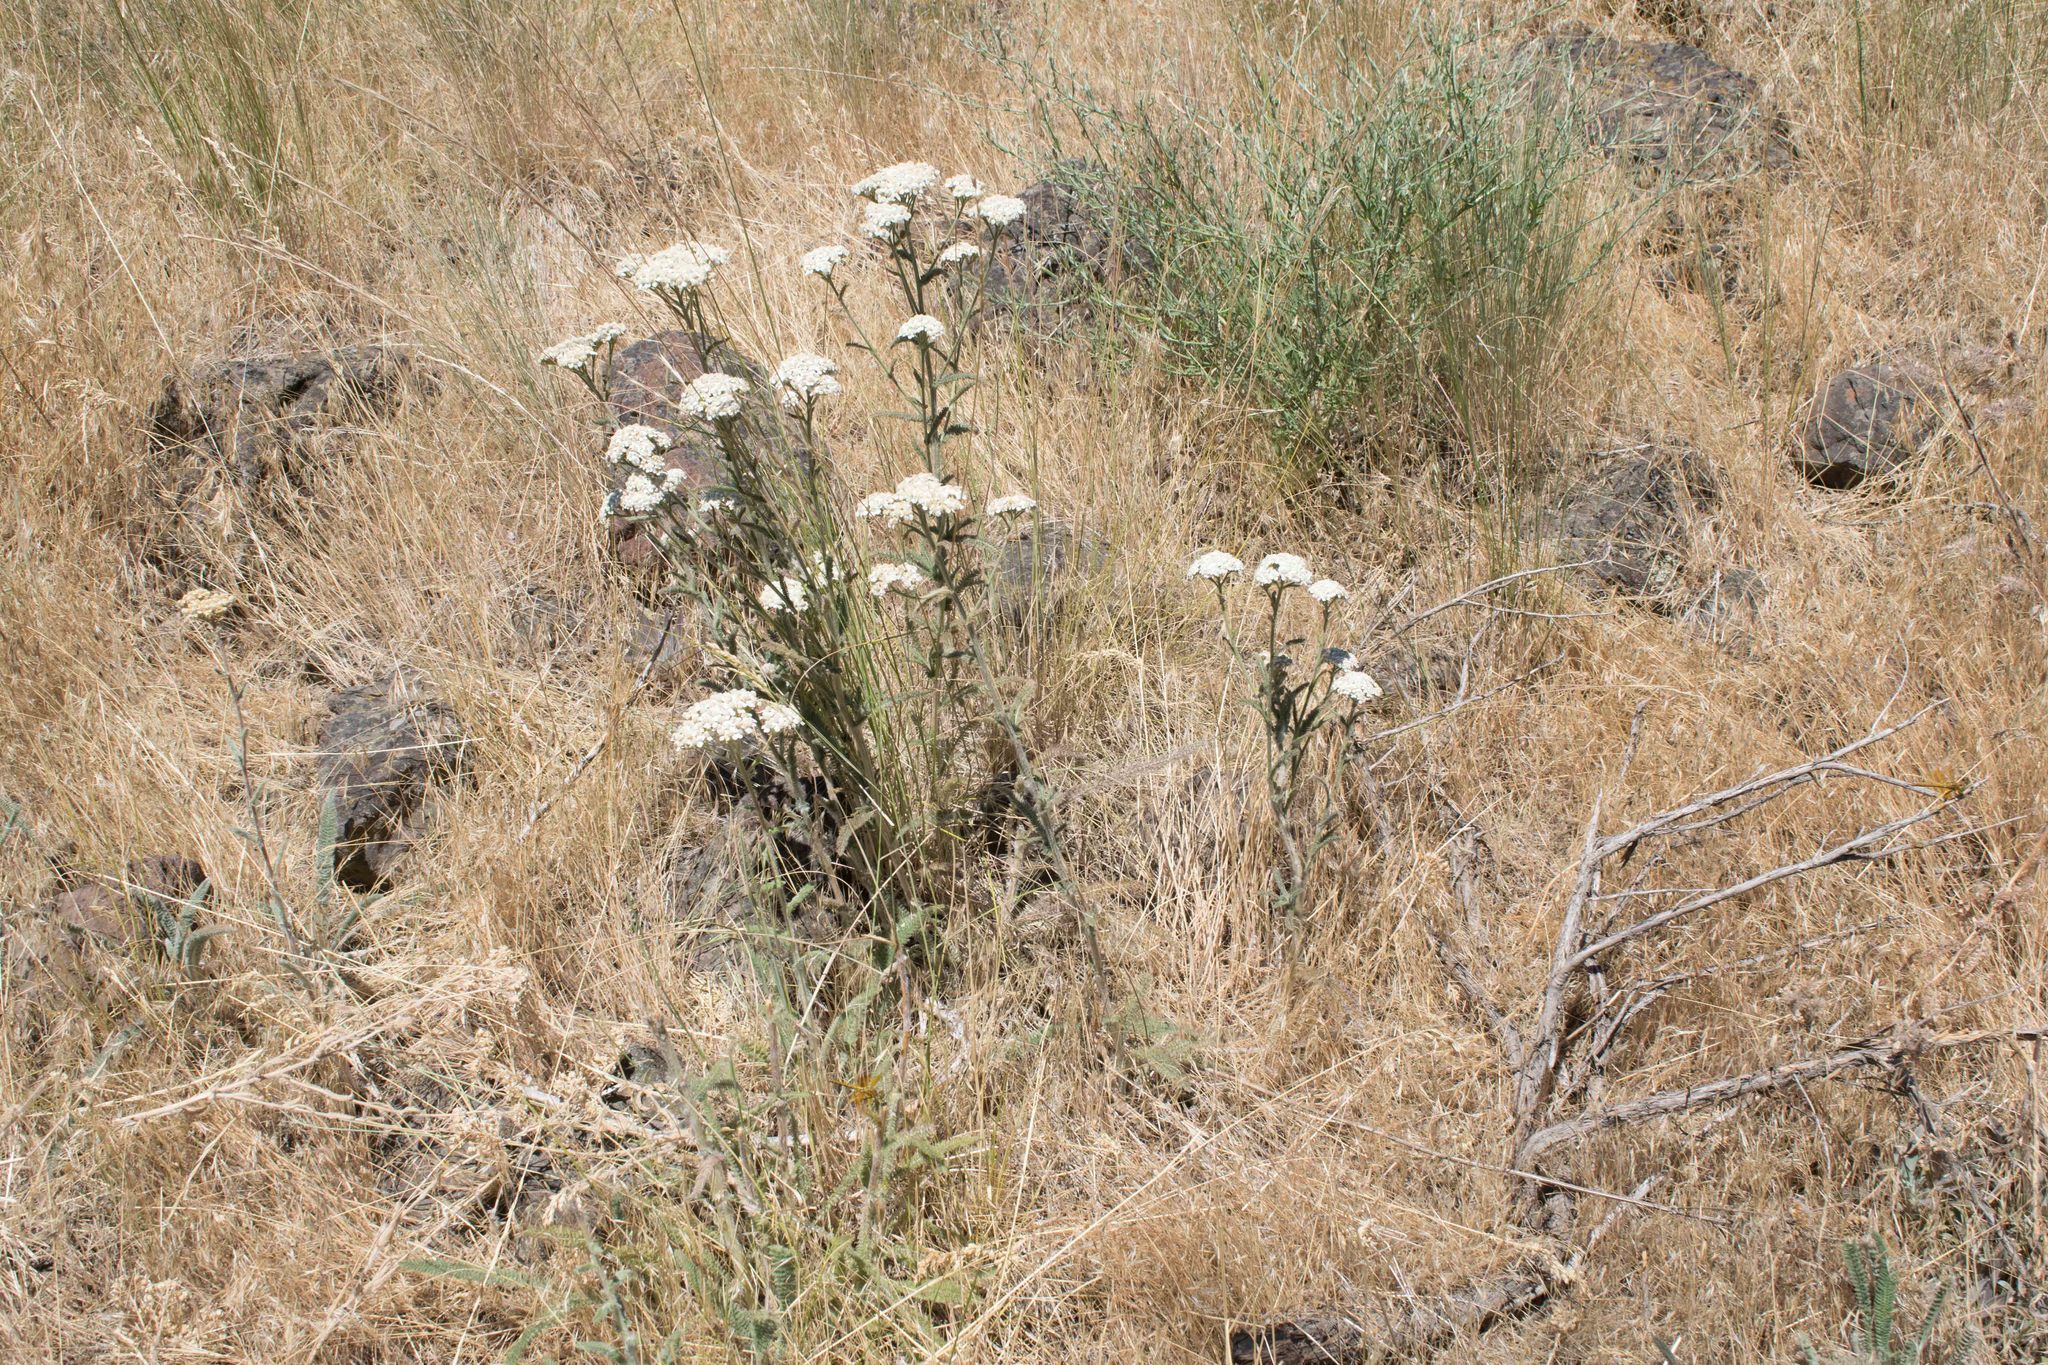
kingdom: Plantae
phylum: Tracheophyta
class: Magnoliopsida
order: Asterales
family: Asteraceae
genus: Achillea
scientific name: Achillea millefolium
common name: Yarrow
